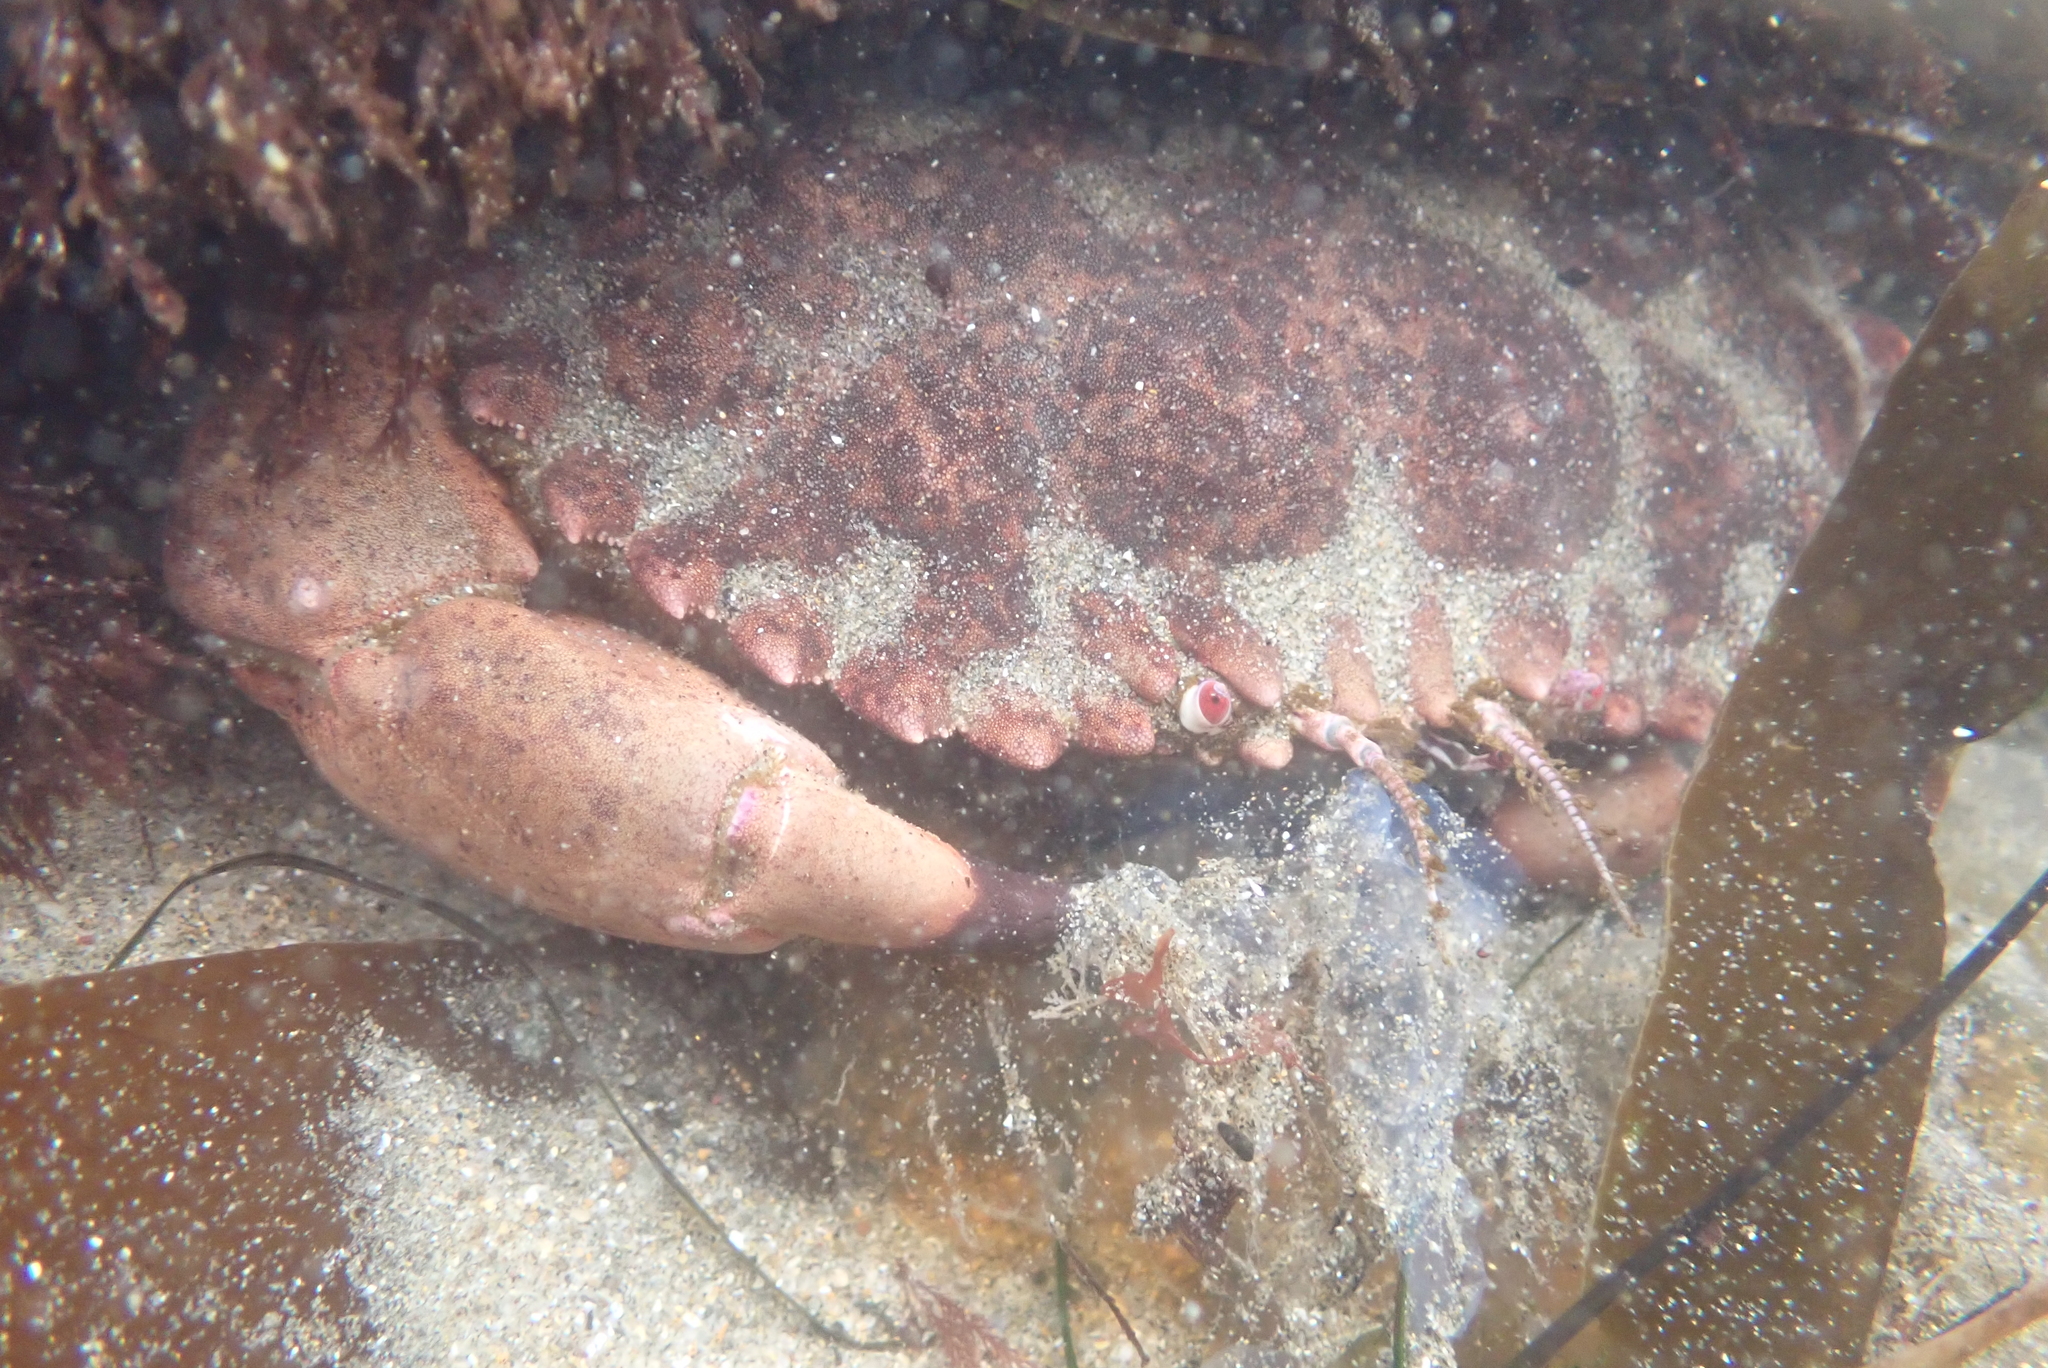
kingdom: Animalia
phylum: Arthropoda
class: Malacostraca
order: Decapoda
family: Cancridae
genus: Romaleon
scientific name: Romaleon antennarium
